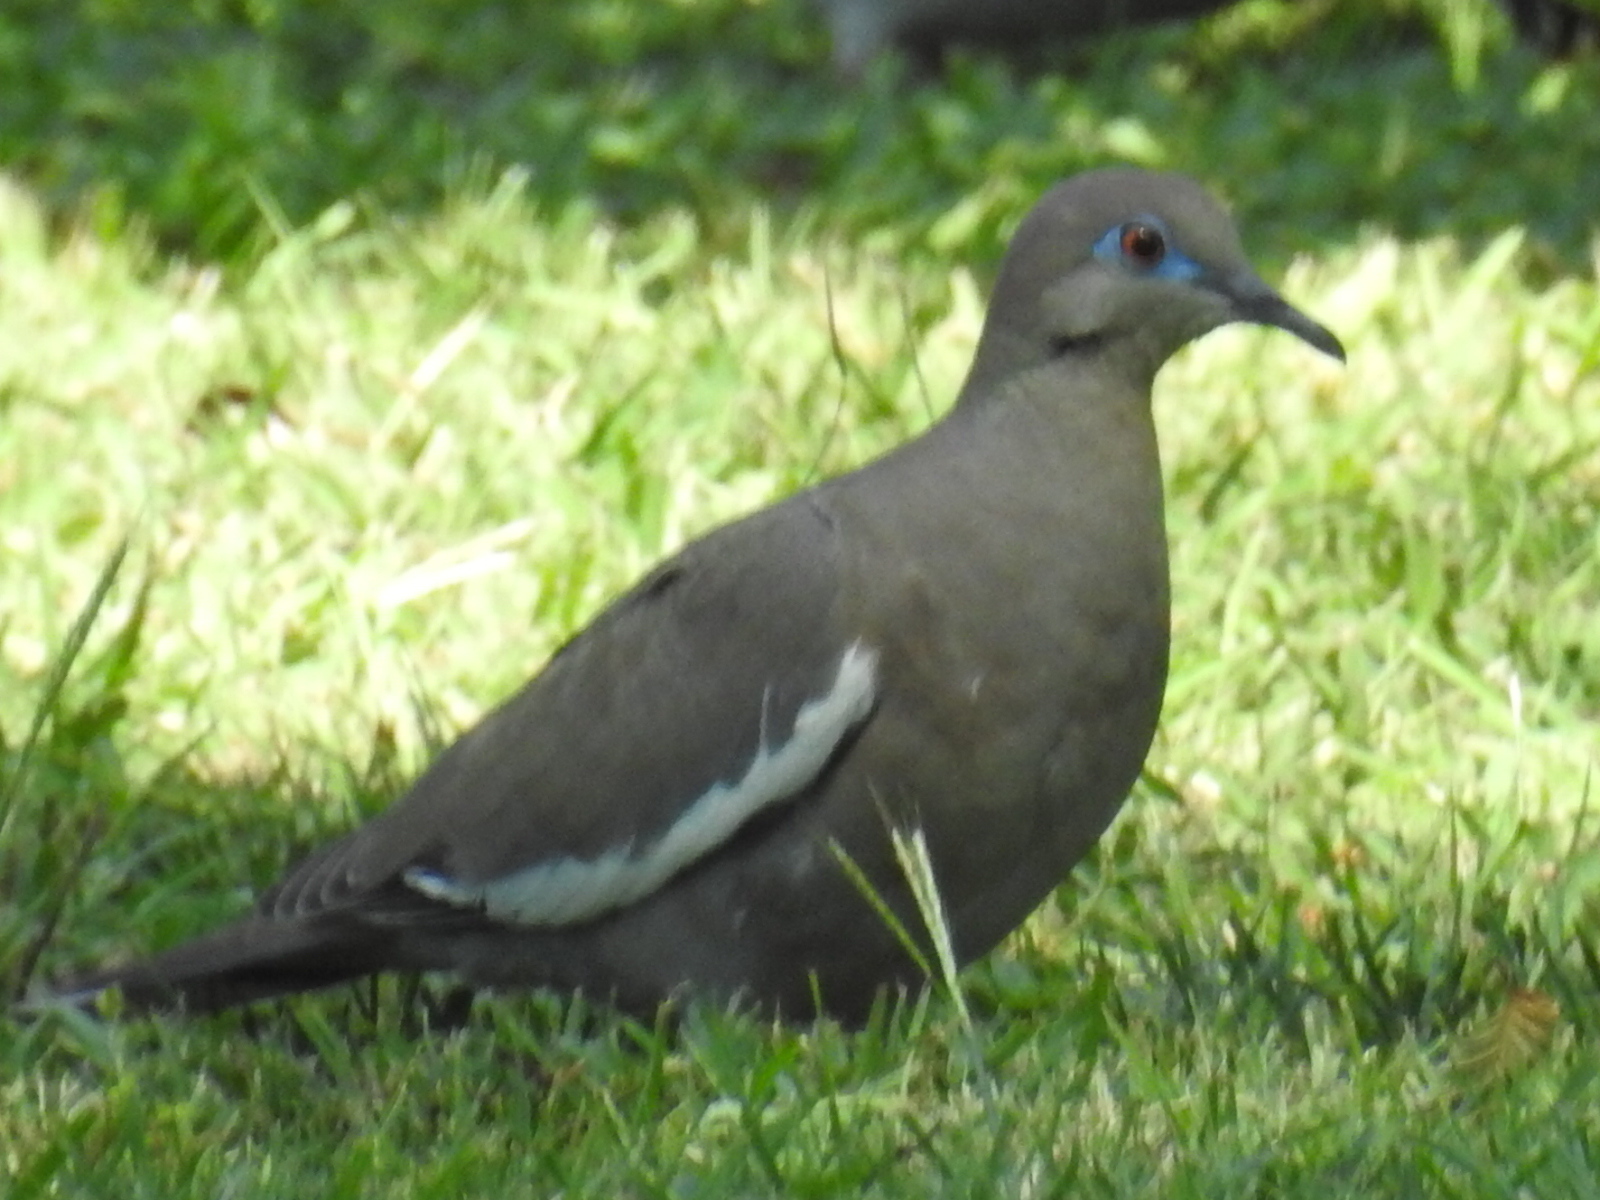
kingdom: Animalia
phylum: Chordata
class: Aves
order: Columbiformes
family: Columbidae
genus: Zenaida
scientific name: Zenaida asiatica
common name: White-winged dove
